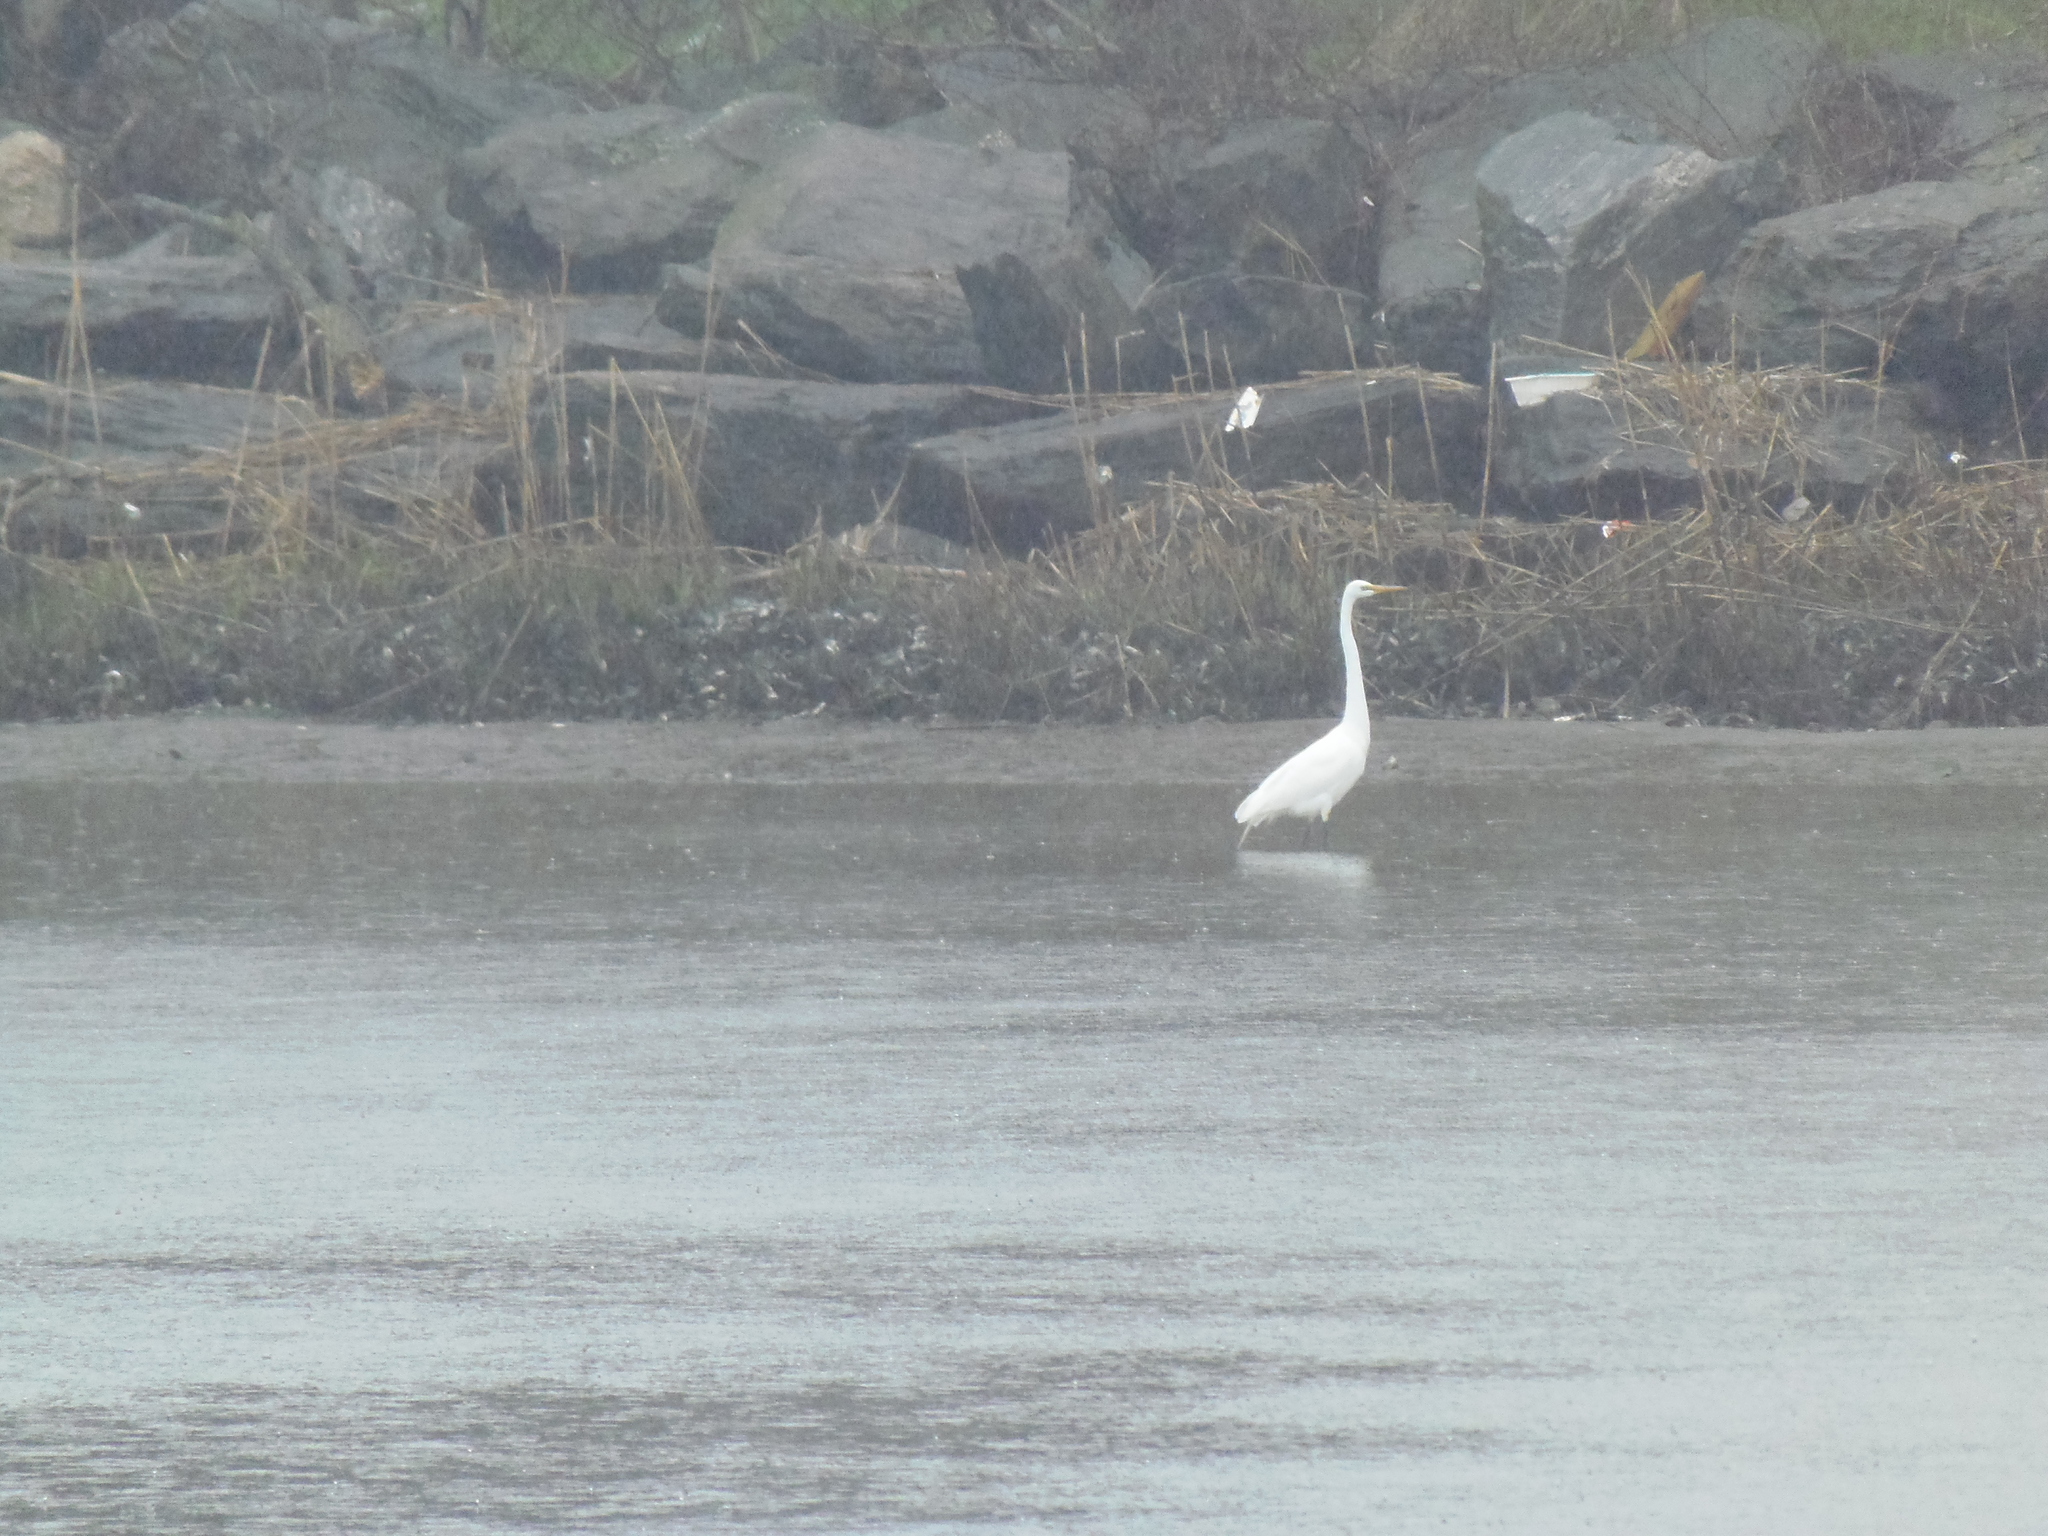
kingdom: Animalia
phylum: Chordata
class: Aves
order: Pelecaniformes
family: Ardeidae
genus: Ardea
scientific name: Ardea alba
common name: Great egret
